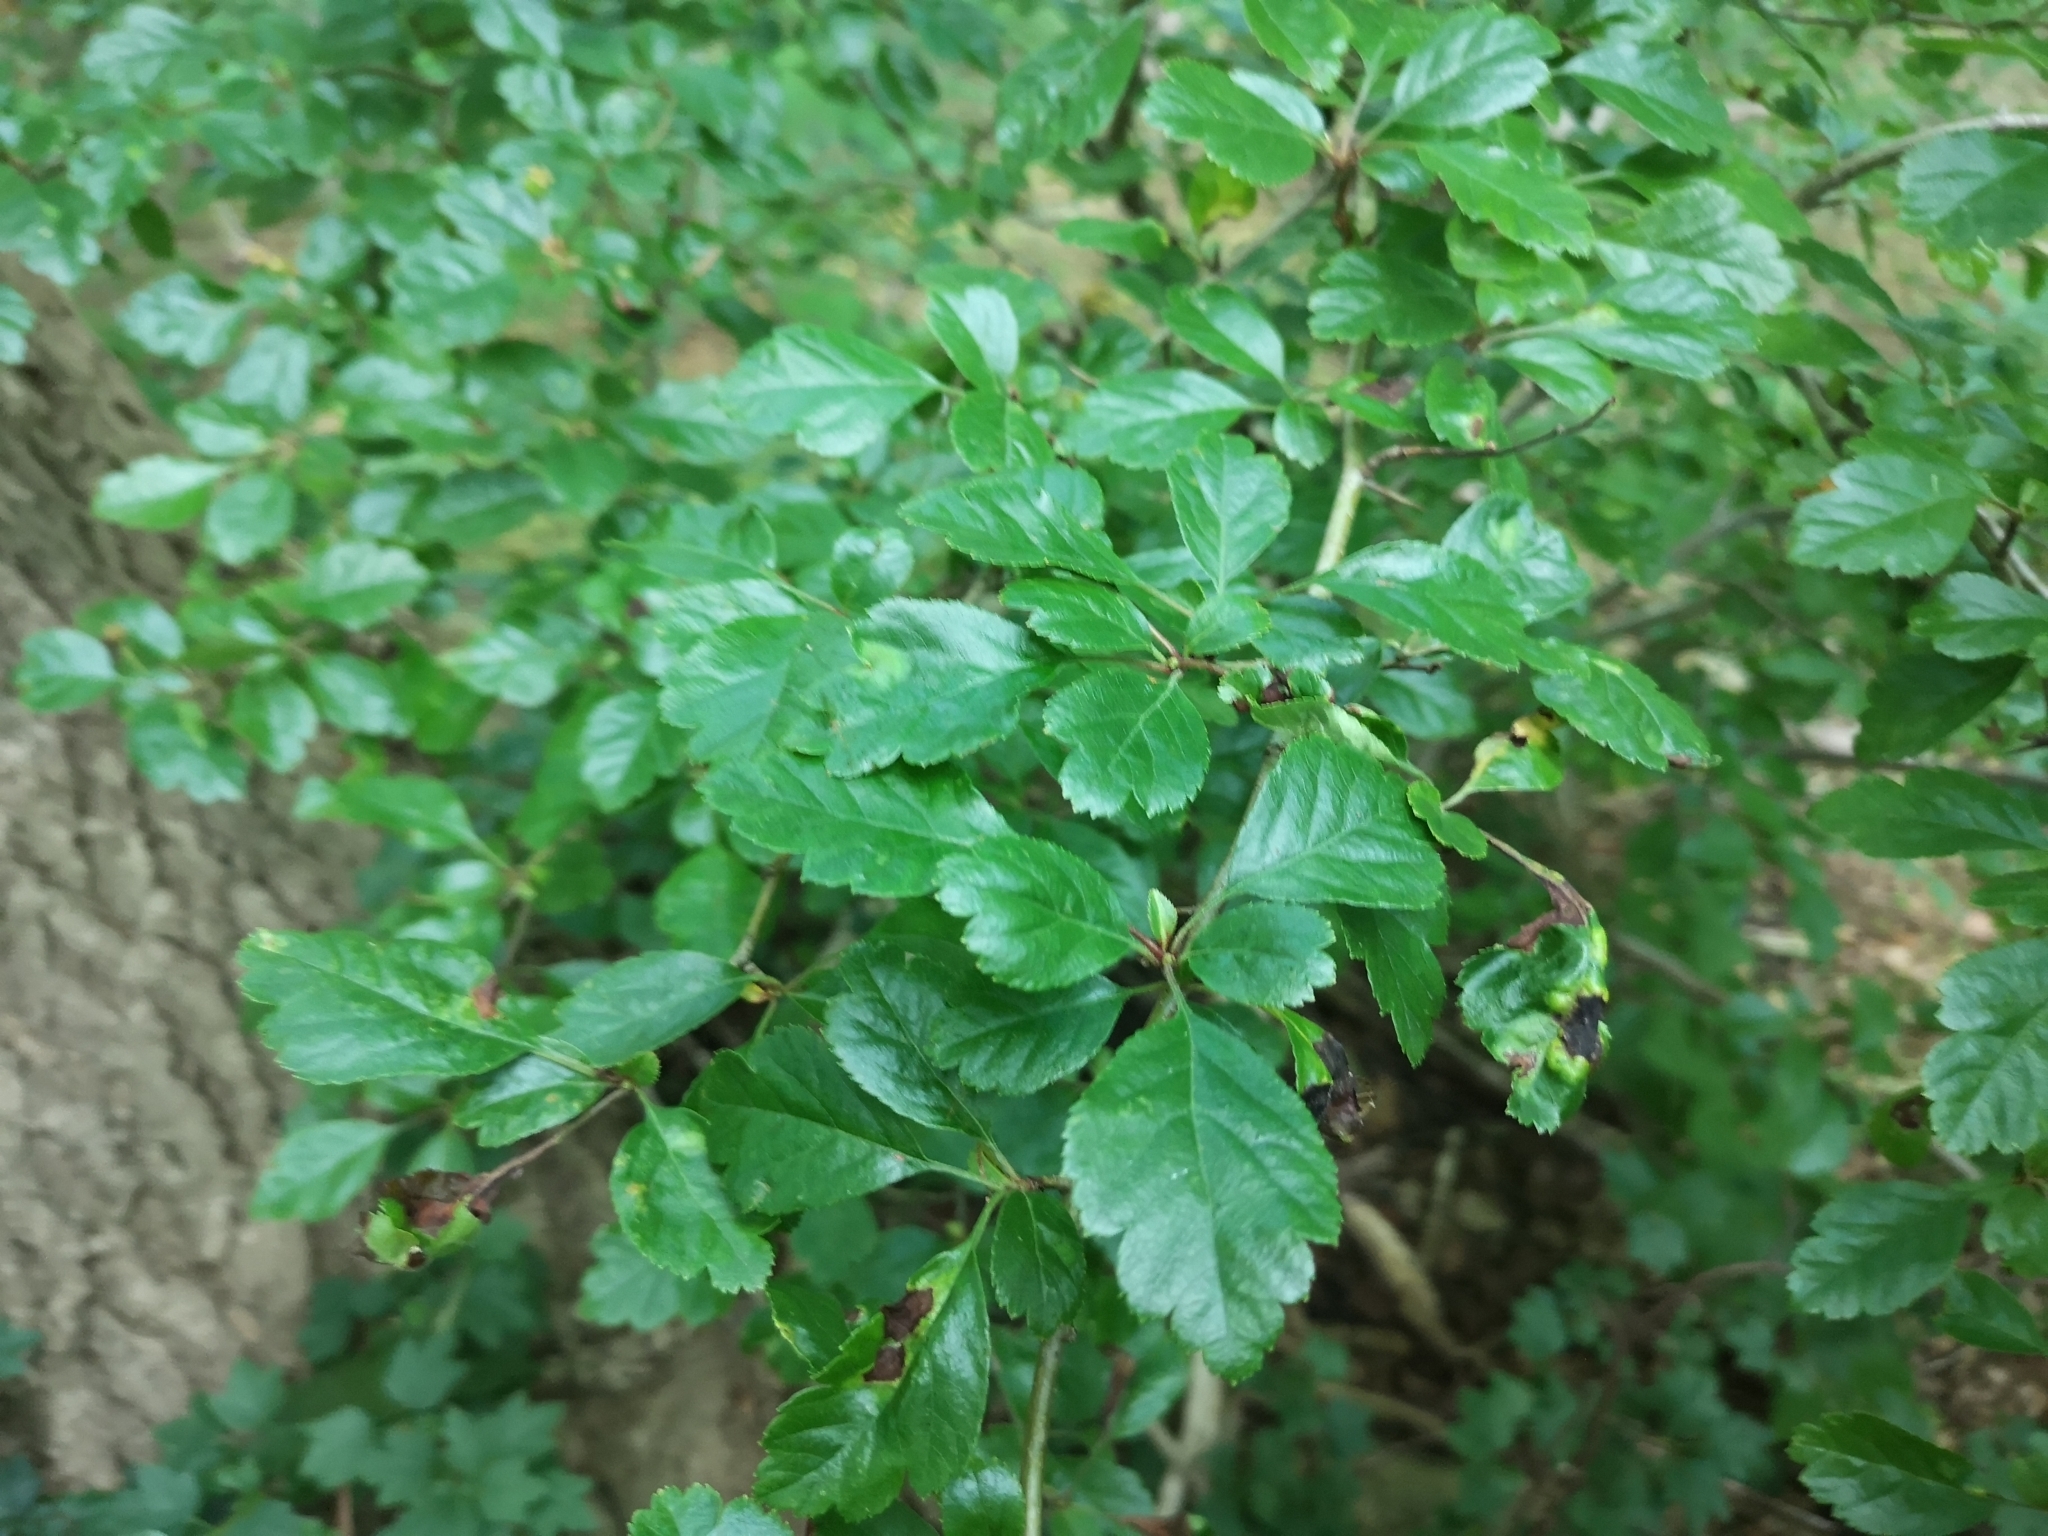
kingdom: Plantae
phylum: Tracheophyta
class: Magnoliopsida
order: Rosales
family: Rosaceae
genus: Crataegus
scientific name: Crataegus laevigata
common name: Midland hawthorn
